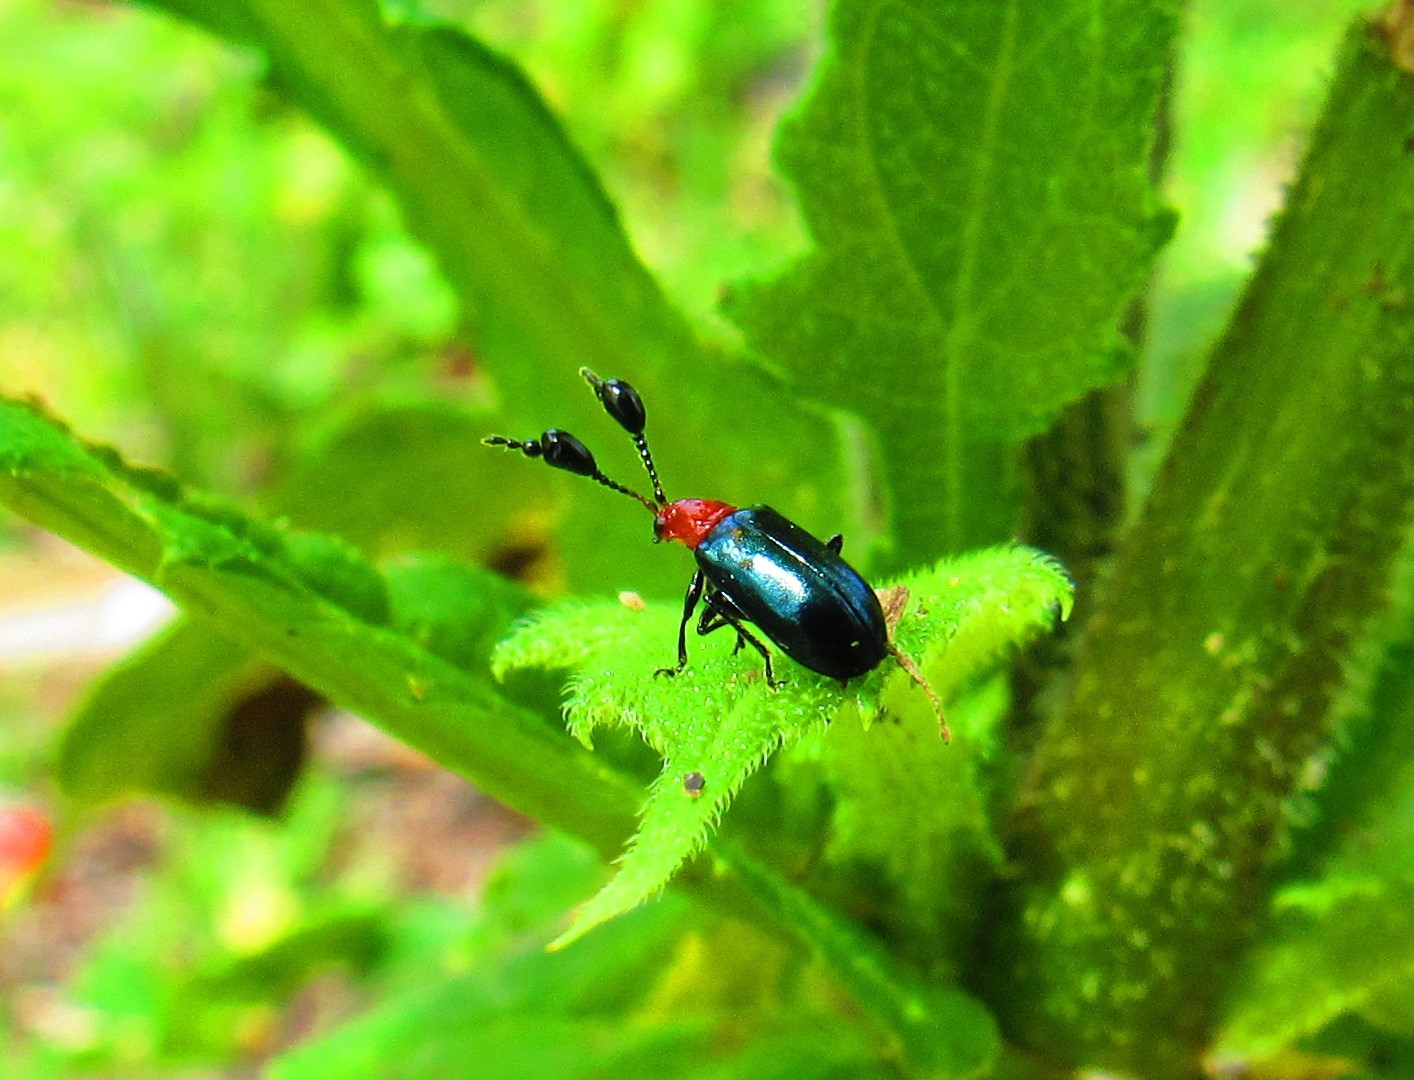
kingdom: Animalia
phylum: Arthropoda
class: Insecta
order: Coleoptera
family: Chrysomelidae
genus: Metacoryna
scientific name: Metacoryna
